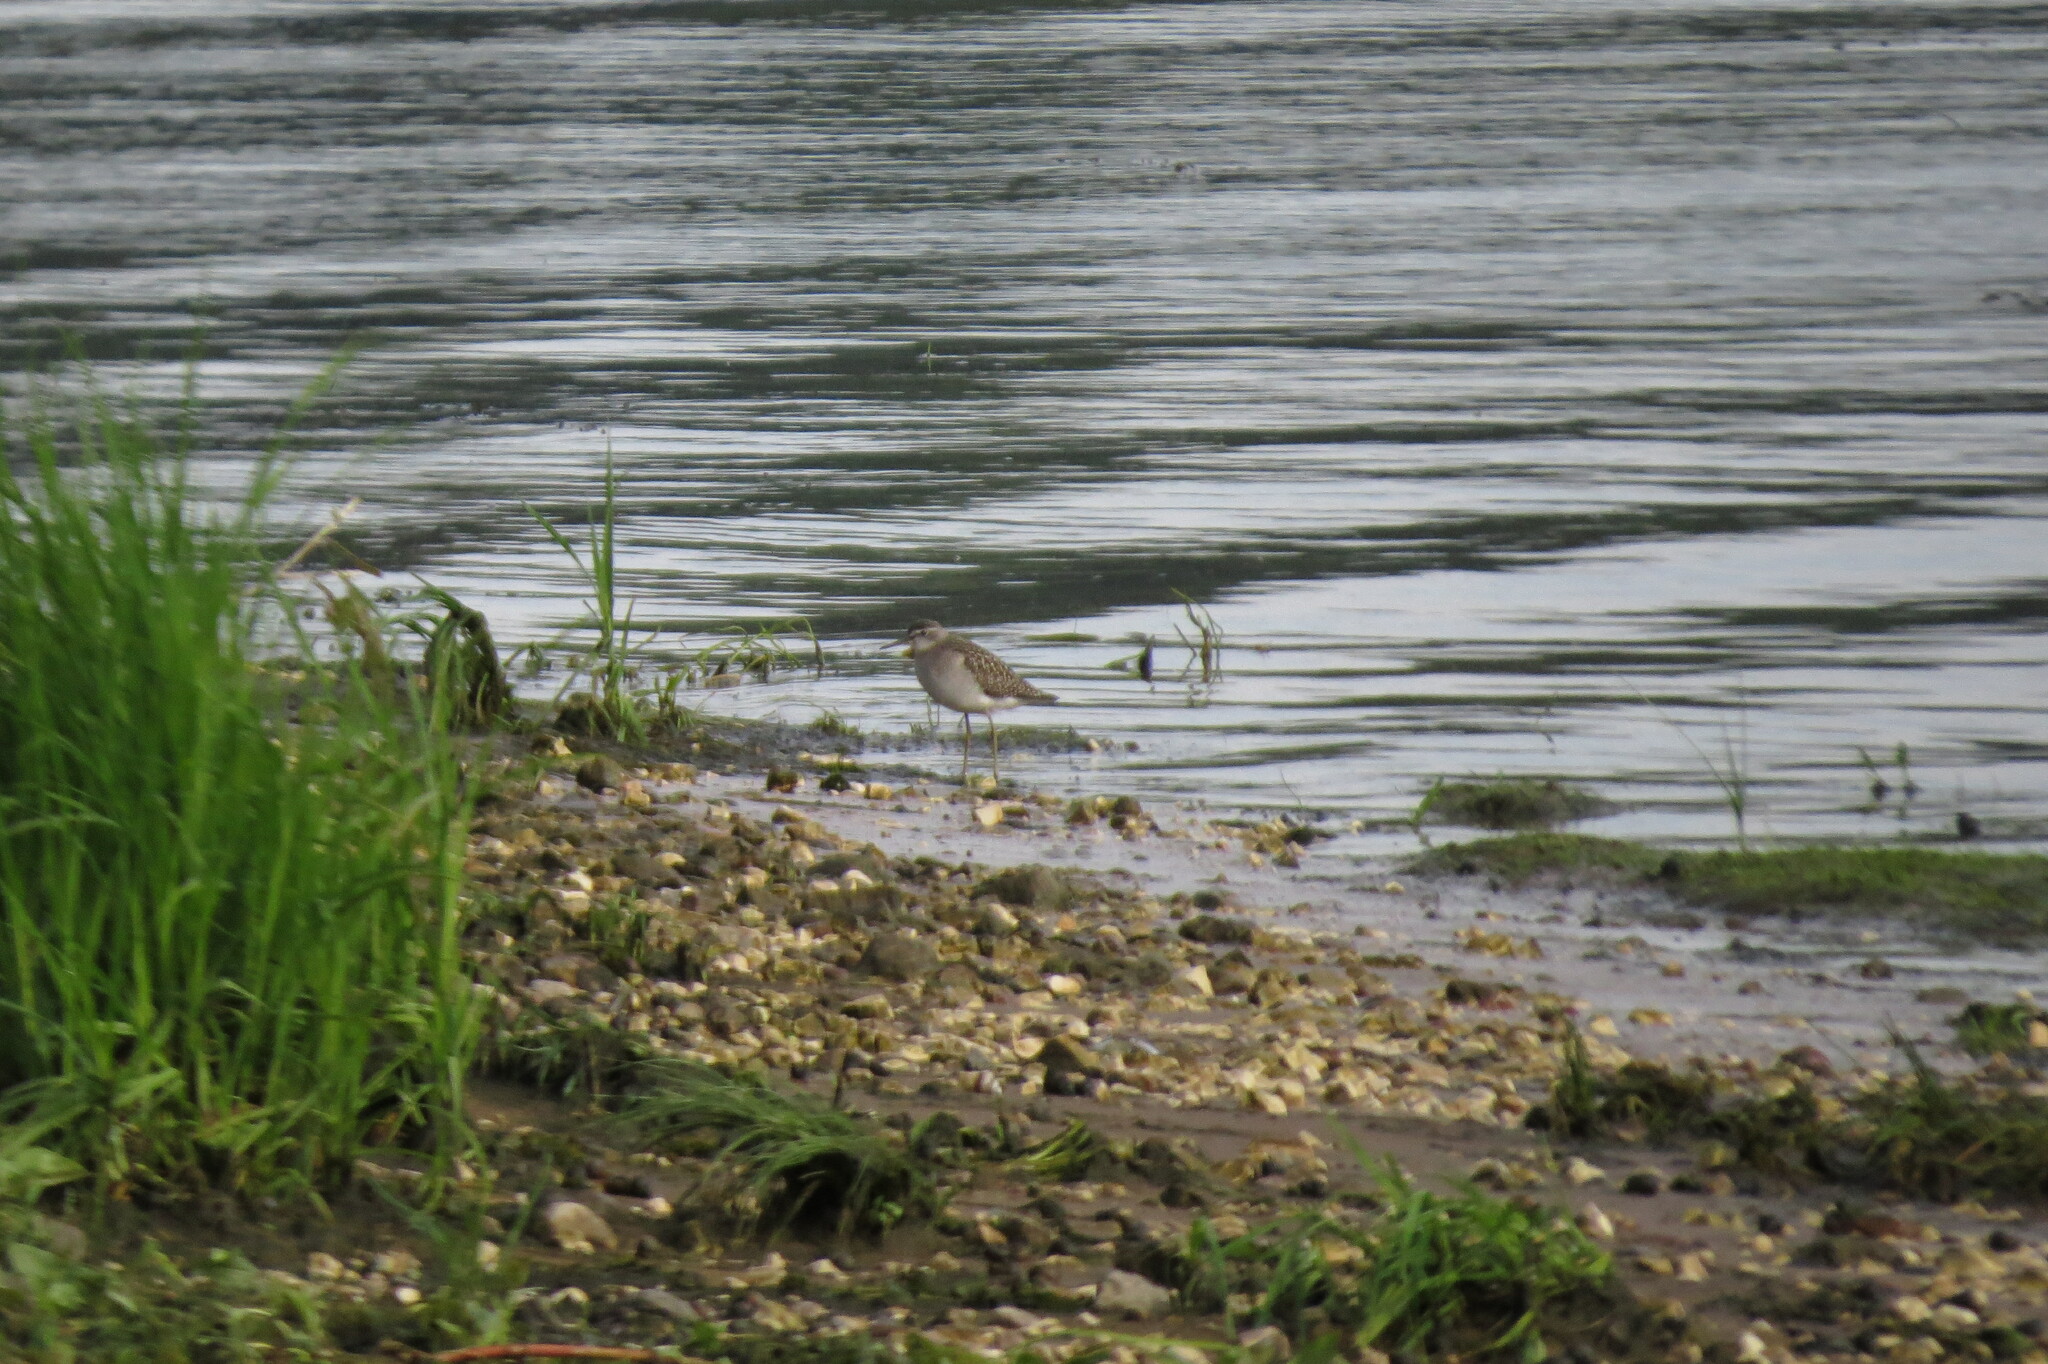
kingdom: Animalia
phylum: Chordata
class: Aves
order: Charadriiformes
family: Scolopacidae
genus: Tringa
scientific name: Tringa glareola
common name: Wood sandpiper
